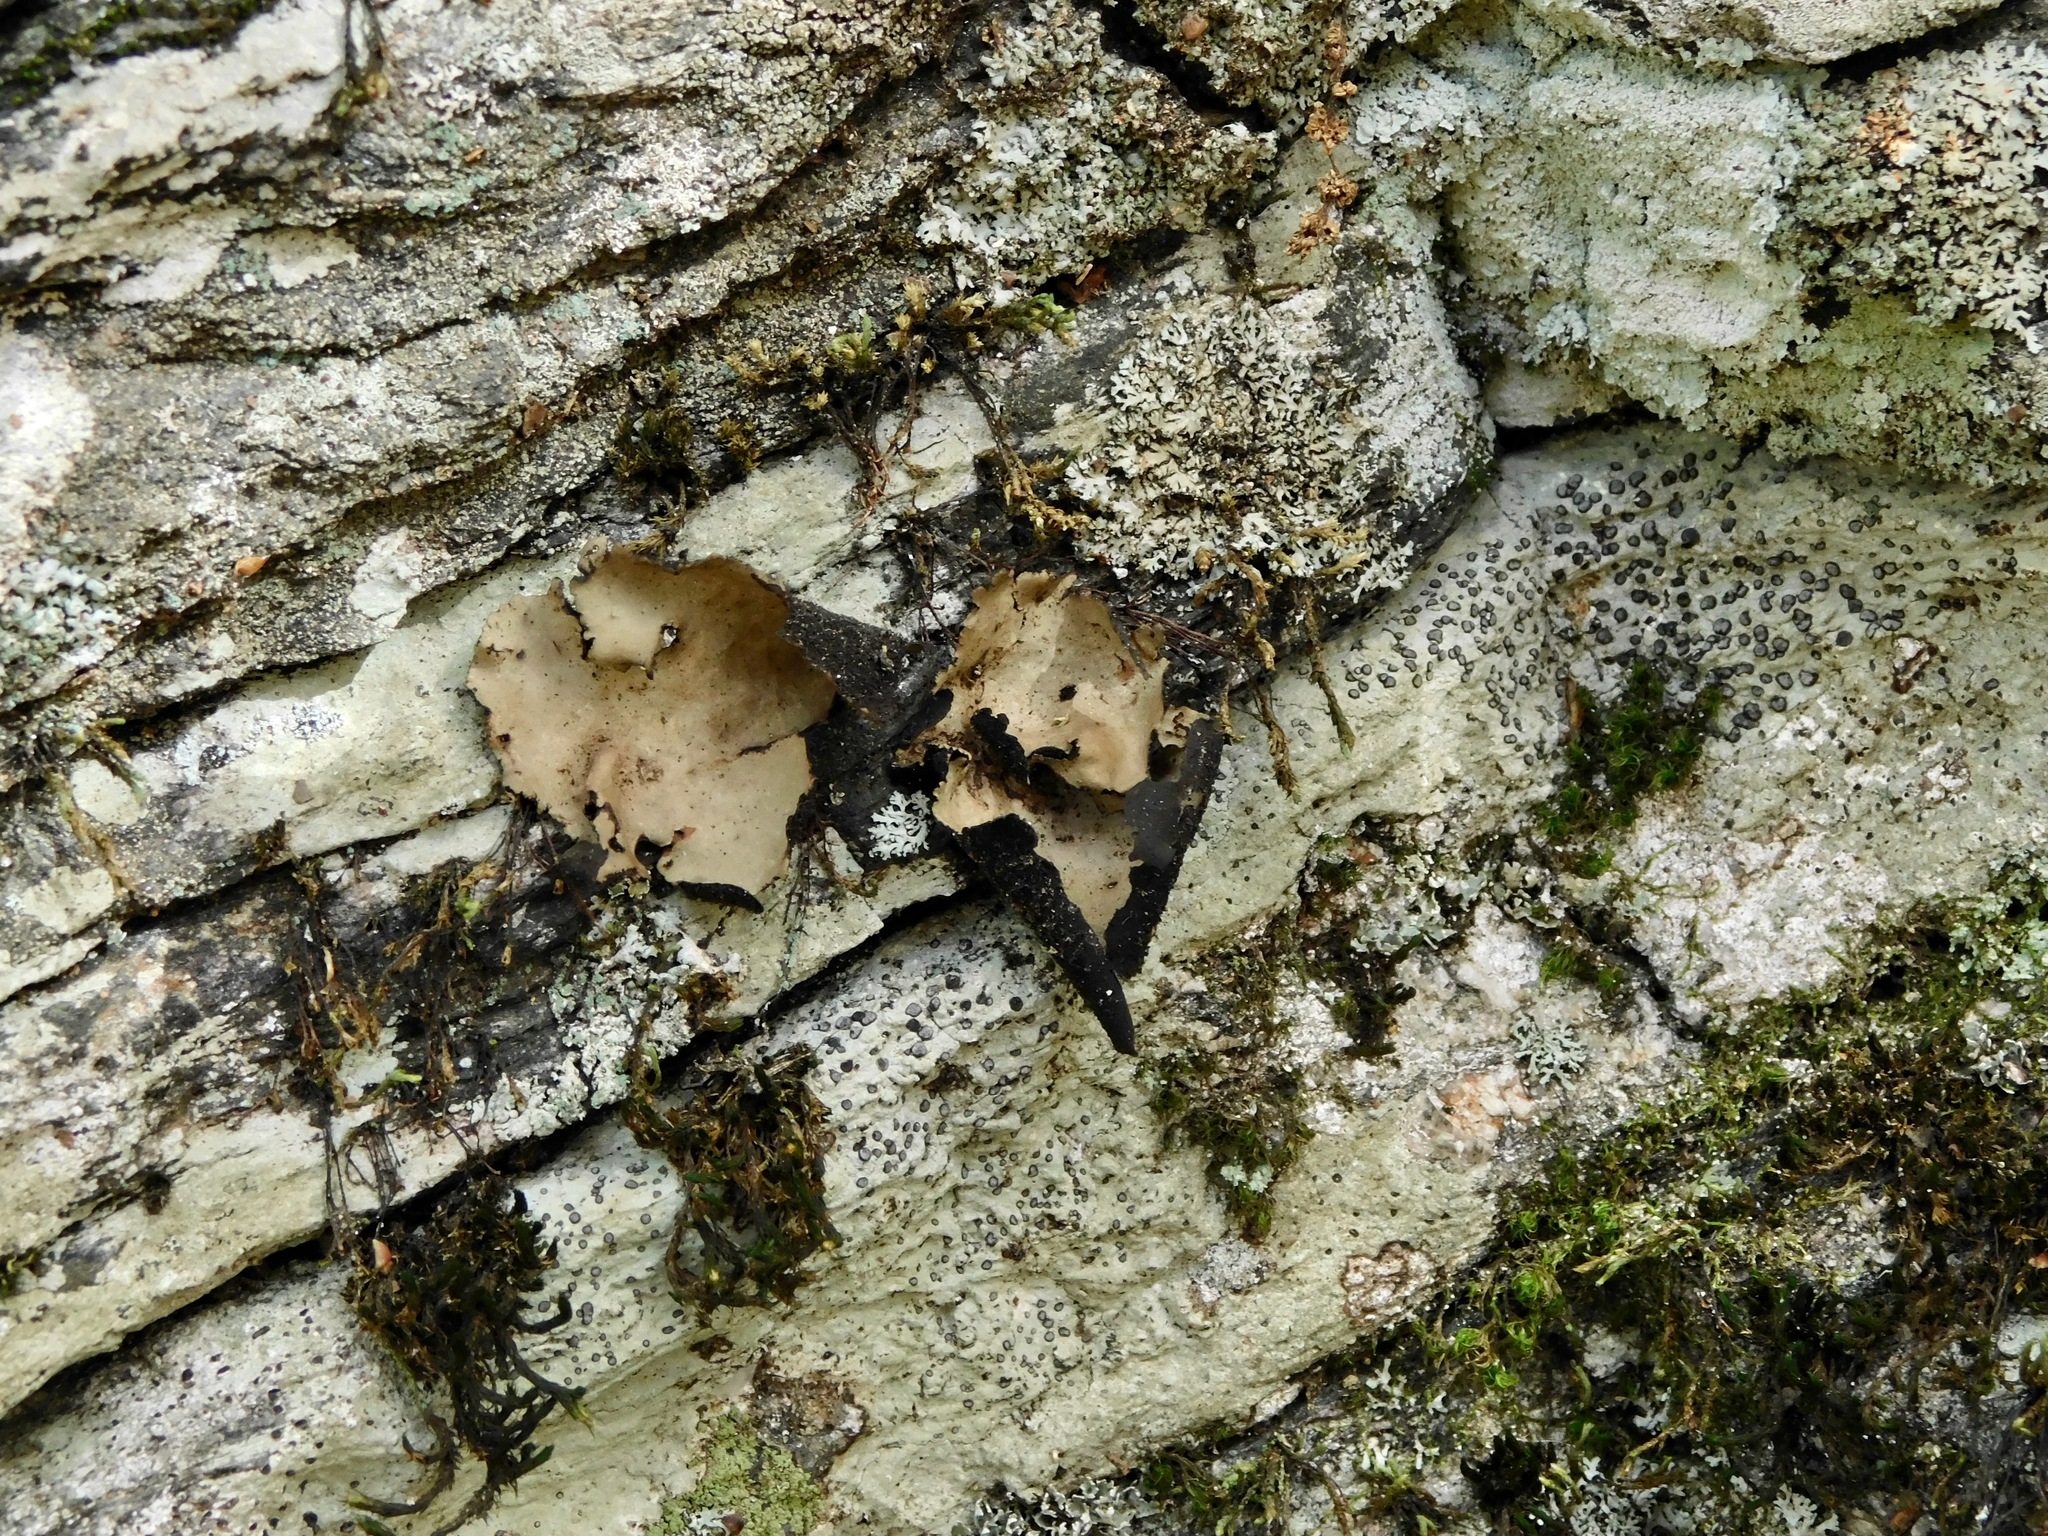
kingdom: Fungi
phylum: Ascomycota
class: Lecanoromycetes
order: Umbilicariales
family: Umbilicariaceae
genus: Umbilicaria
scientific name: Umbilicaria mammulata
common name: Smooth rock tripe
